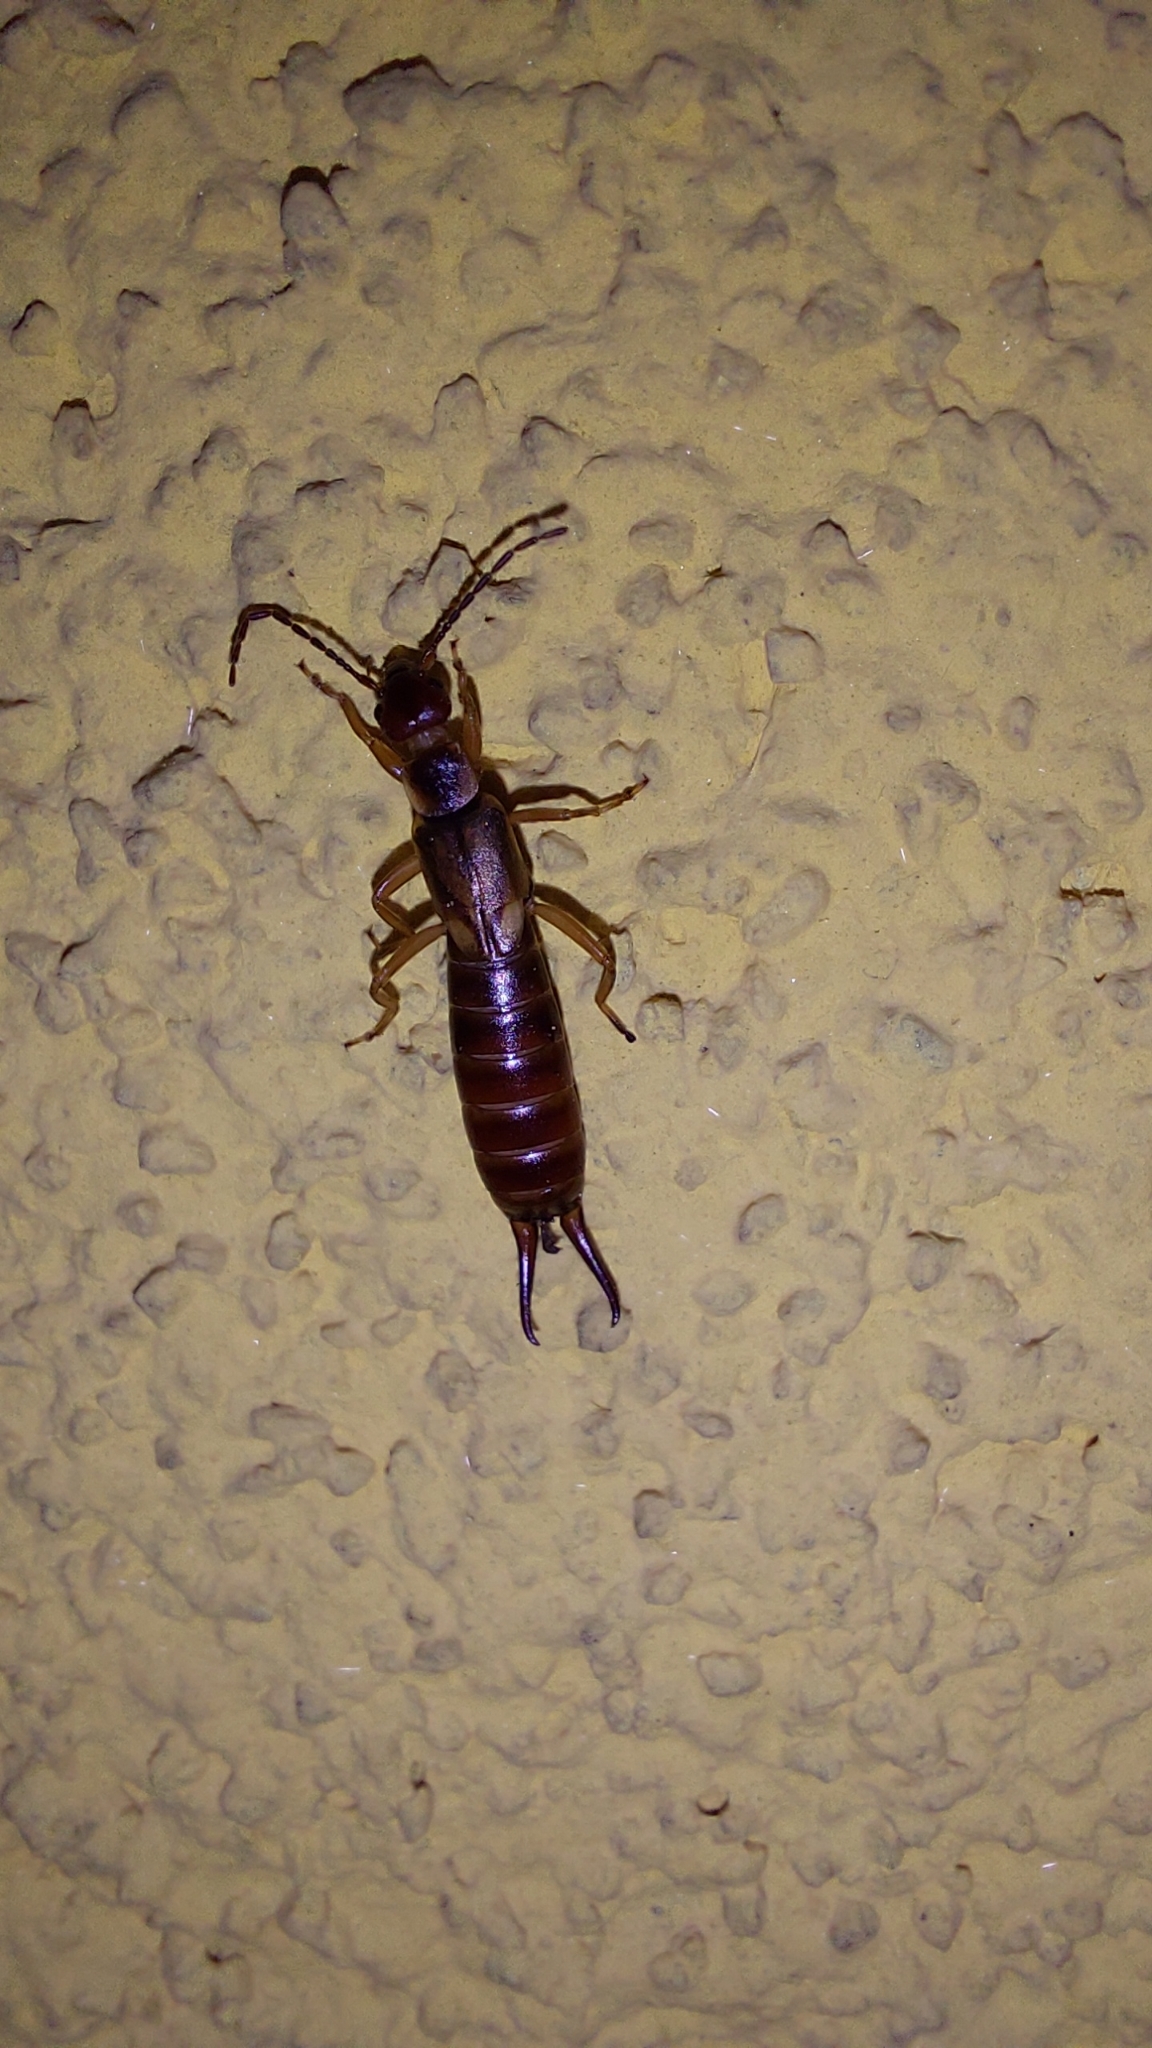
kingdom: Animalia
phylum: Arthropoda
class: Insecta
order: Dermaptera
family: Forficulidae
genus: Forficula
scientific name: Forficula
